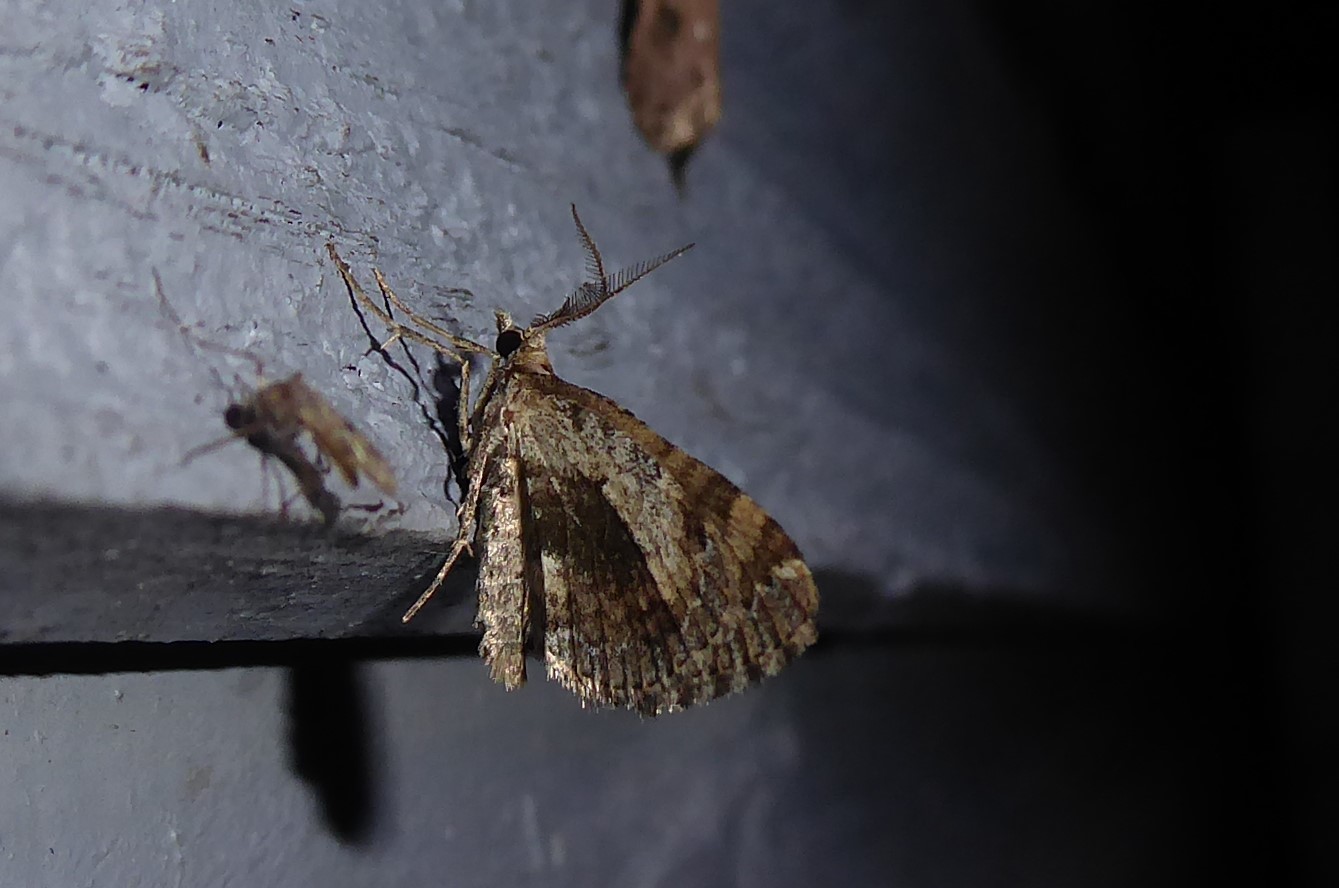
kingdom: Animalia
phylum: Arthropoda
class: Insecta
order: Lepidoptera
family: Geometridae
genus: Asaphodes
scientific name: Asaphodes aegrota
